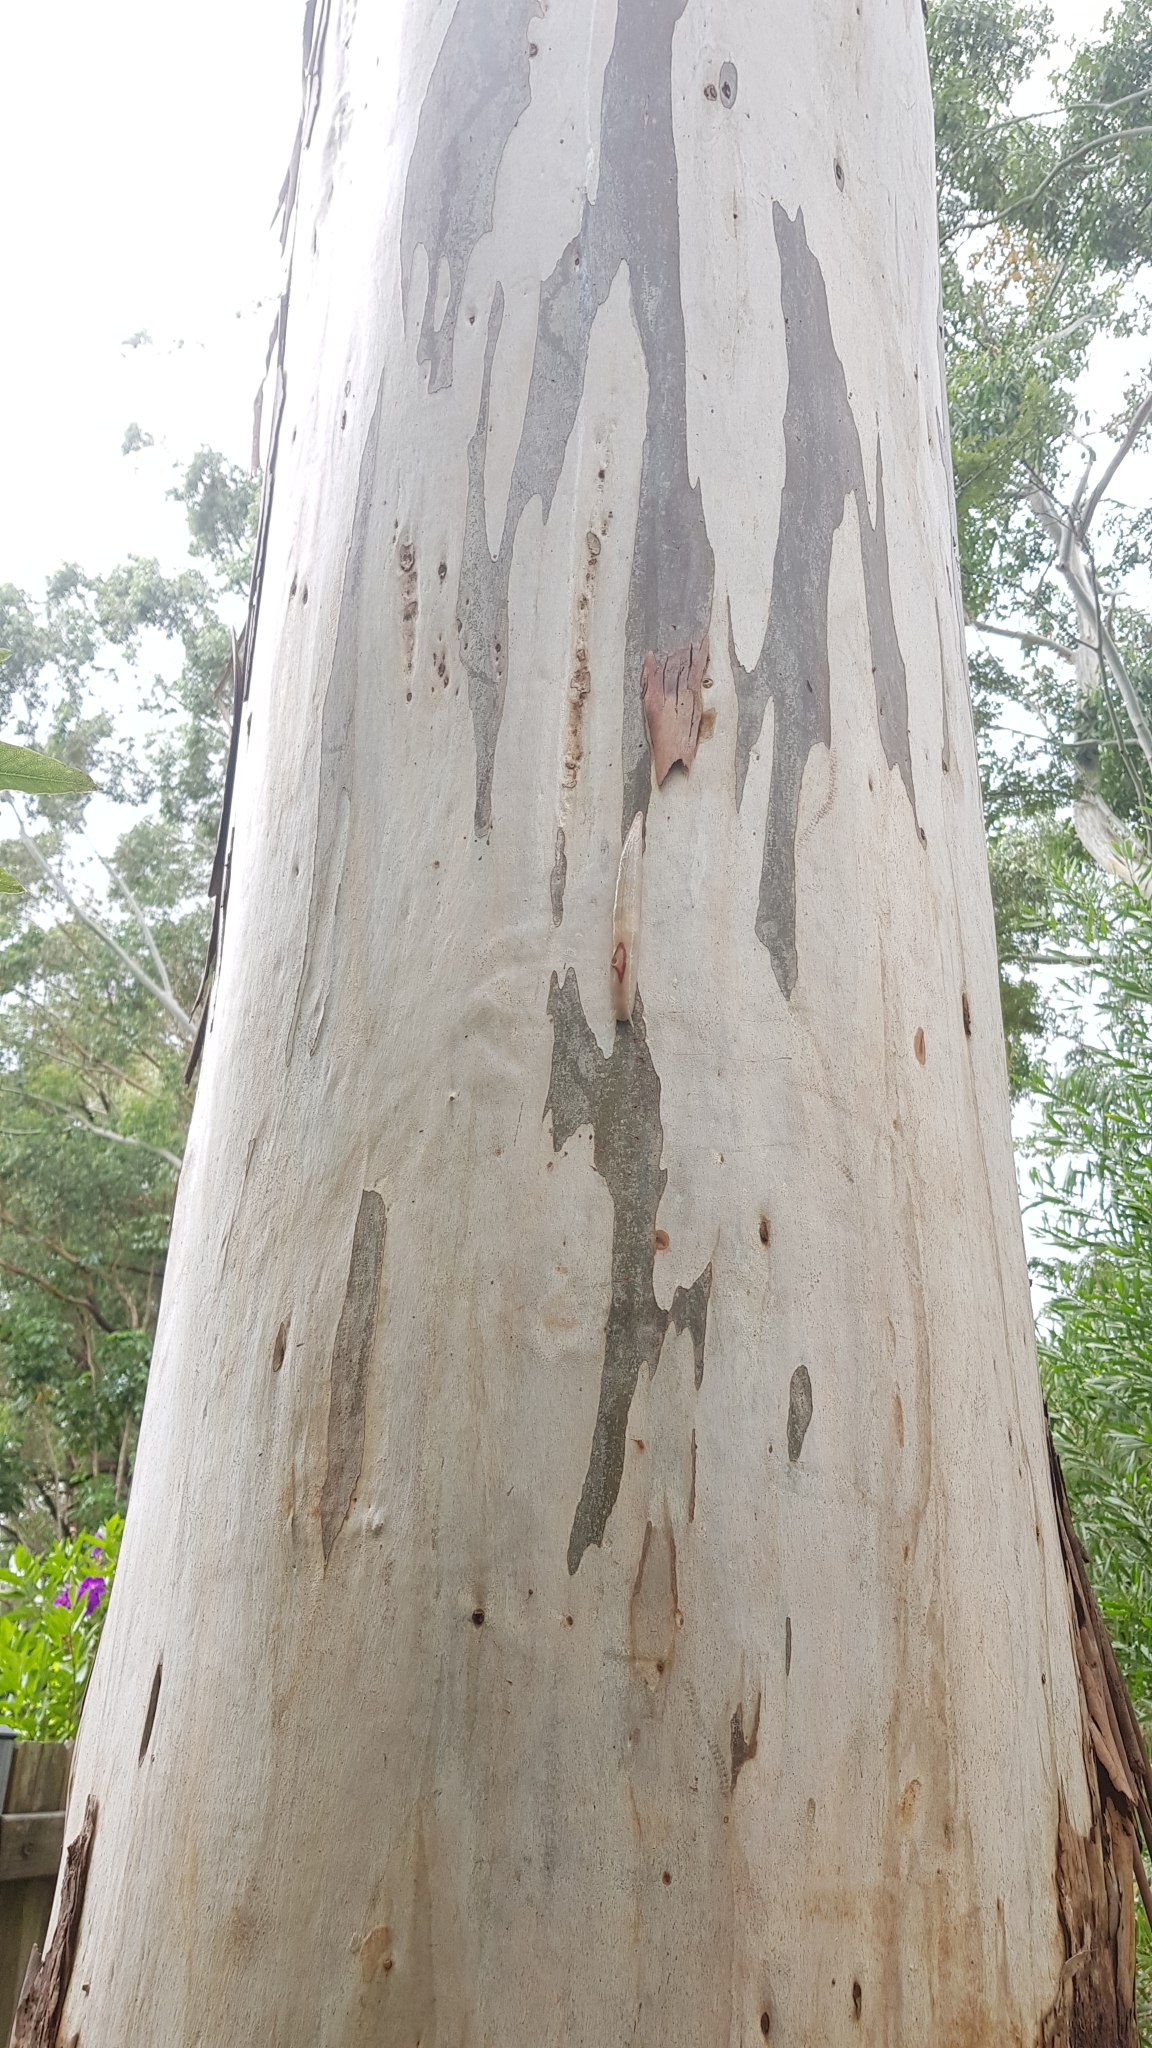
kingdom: Animalia
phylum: Mollusca
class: Gastropoda
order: Stylommatophora
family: Athoracophoridae
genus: Triboniophorus
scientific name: Triboniophorus graeffei
